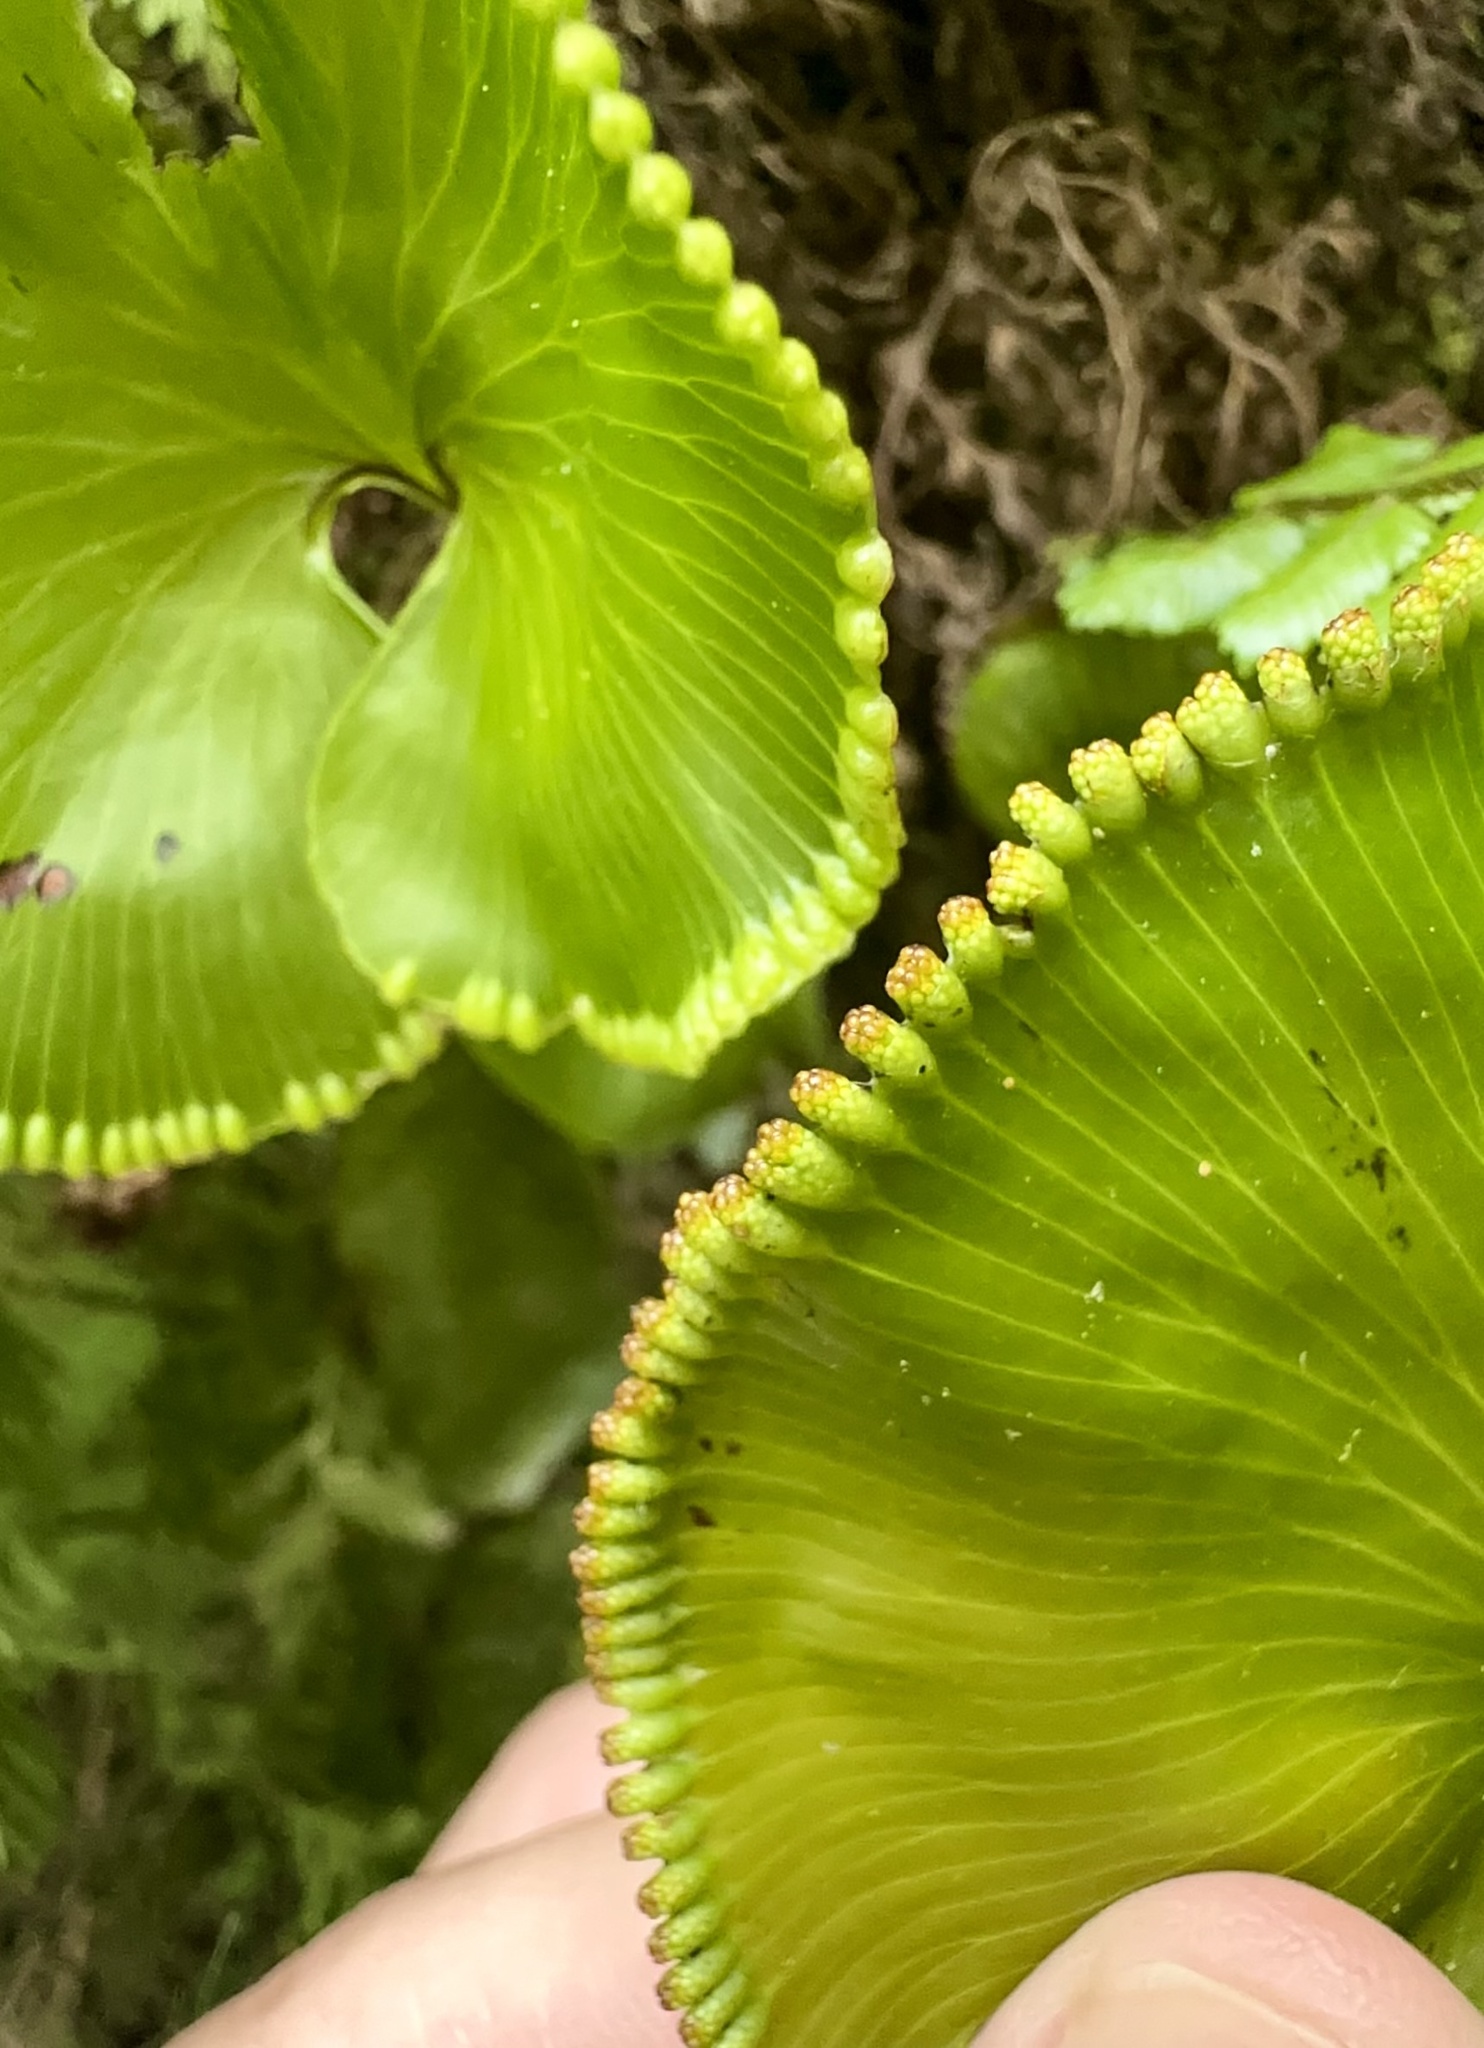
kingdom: Plantae
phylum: Tracheophyta
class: Polypodiopsida
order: Hymenophyllales
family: Hymenophyllaceae
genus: Hymenophyllum
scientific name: Hymenophyllum nephrophyllum
